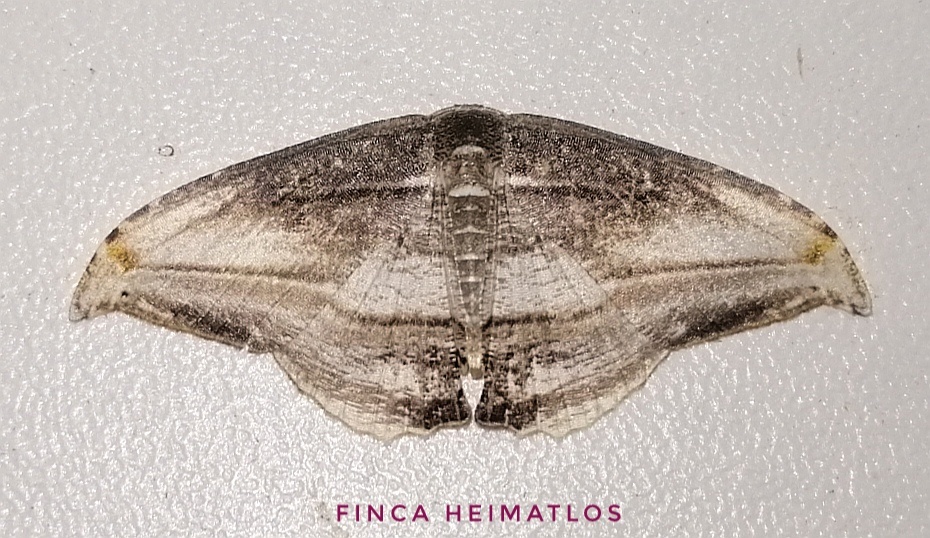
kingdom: Animalia
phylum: Arthropoda
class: Insecta
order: Lepidoptera
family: Uraniidae
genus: Morphomima
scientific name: Morphomima fulvitacta
